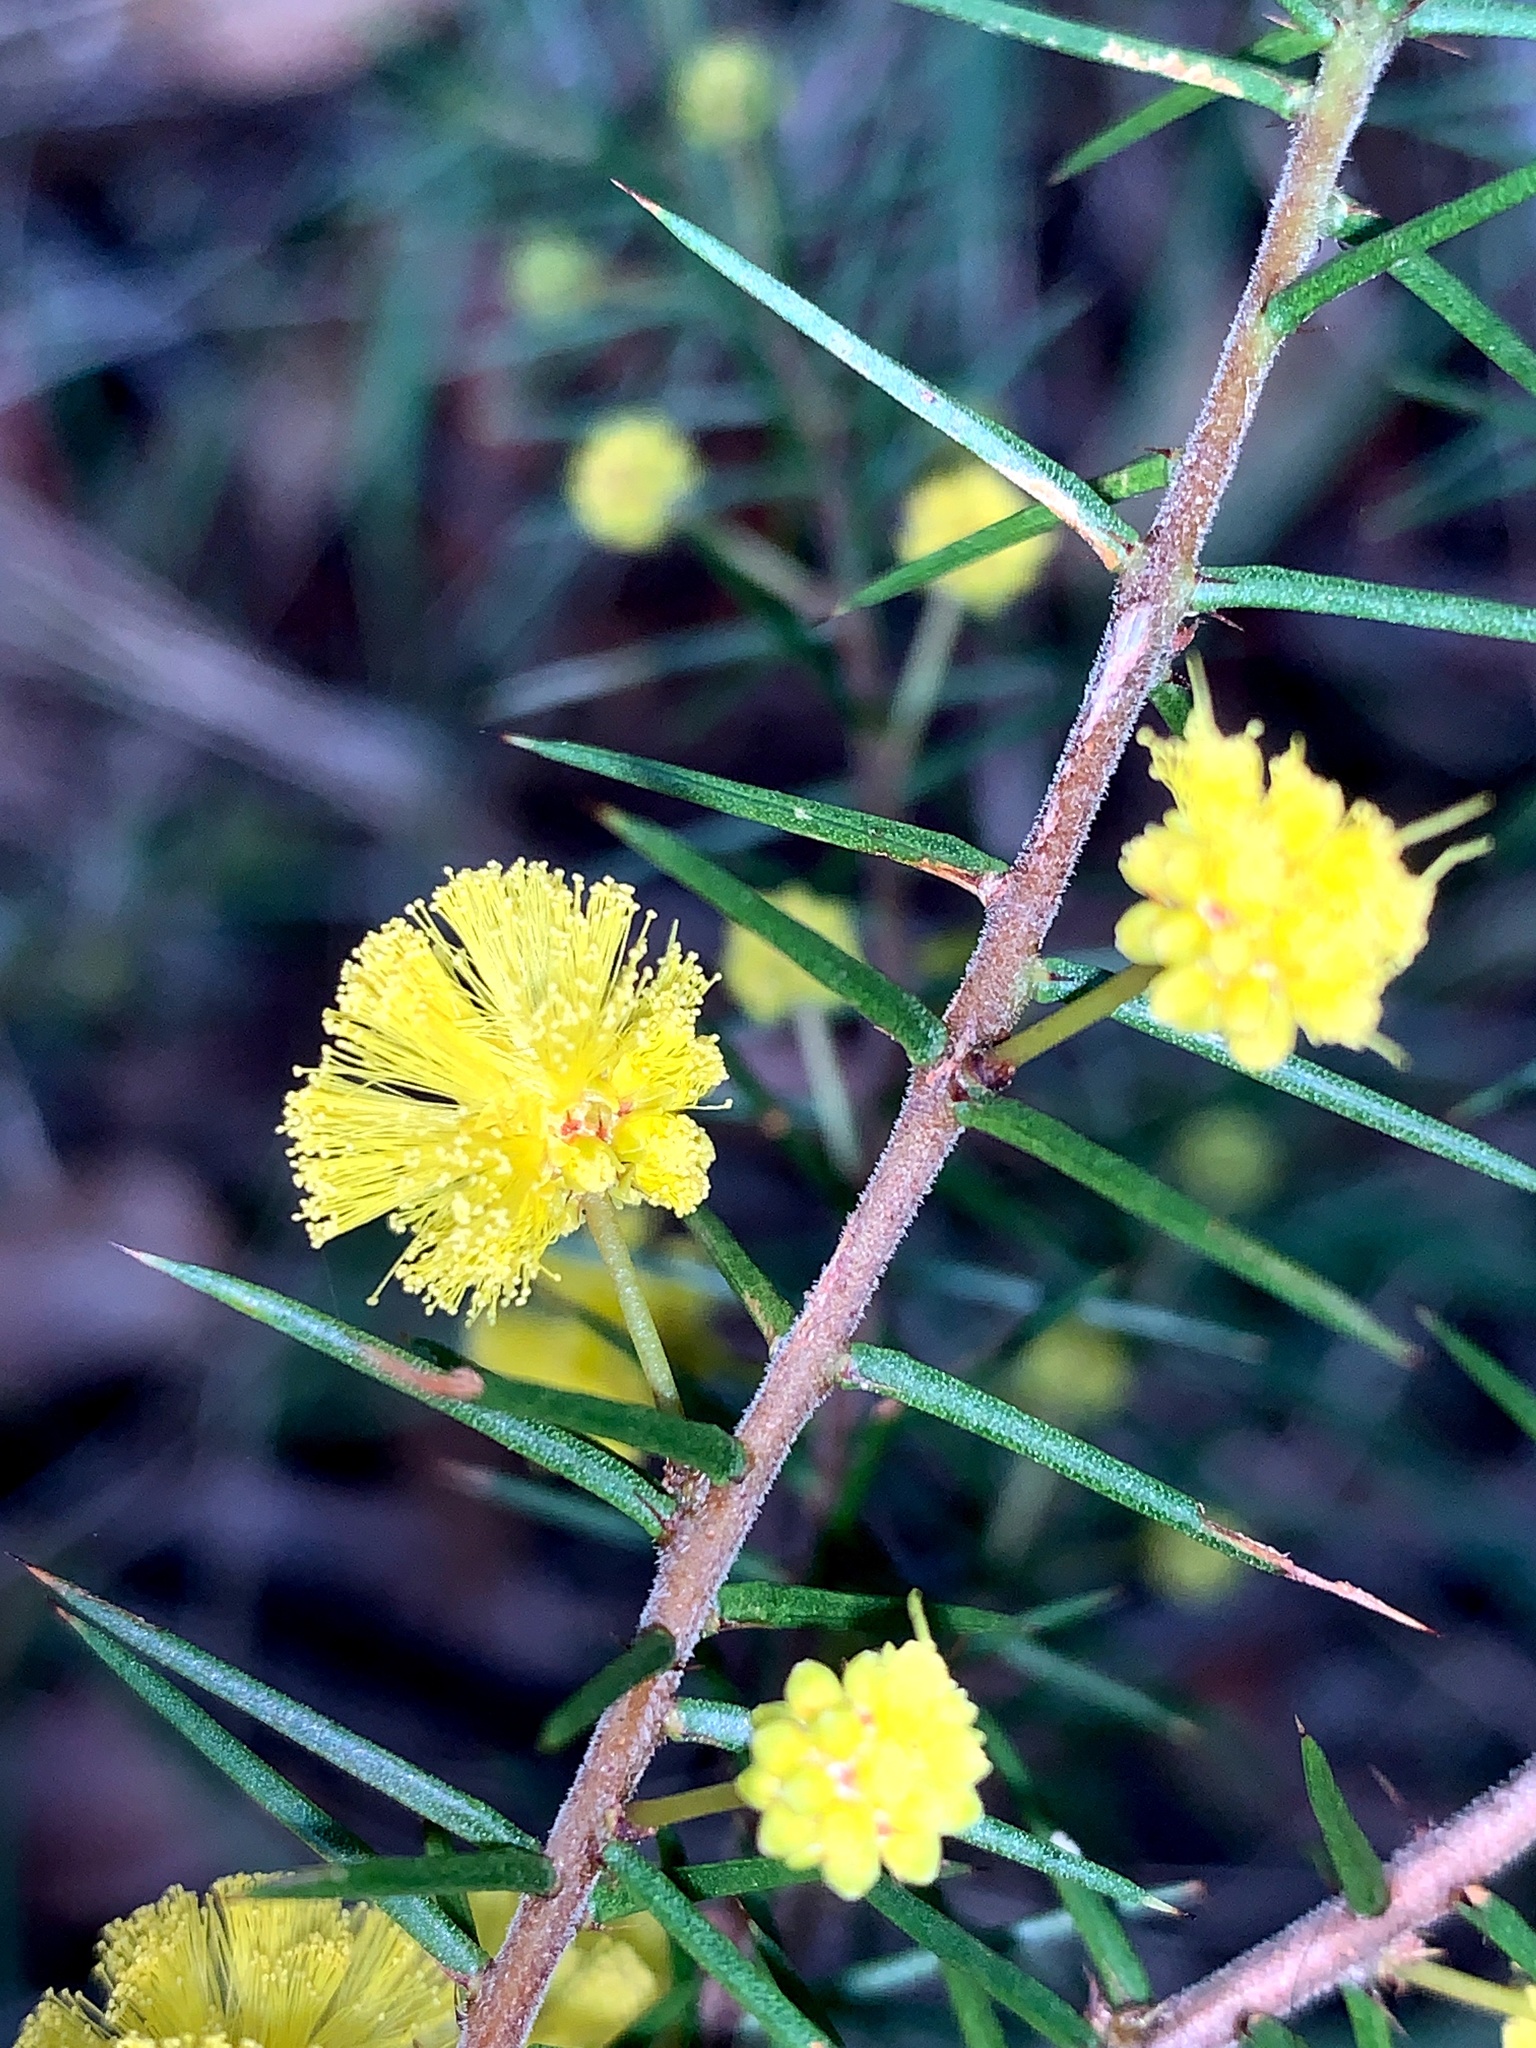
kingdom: Plantae
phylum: Tracheophyta
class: Magnoliopsida
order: Fabales
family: Fabaceae
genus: Acacia
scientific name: Acacia echinula
